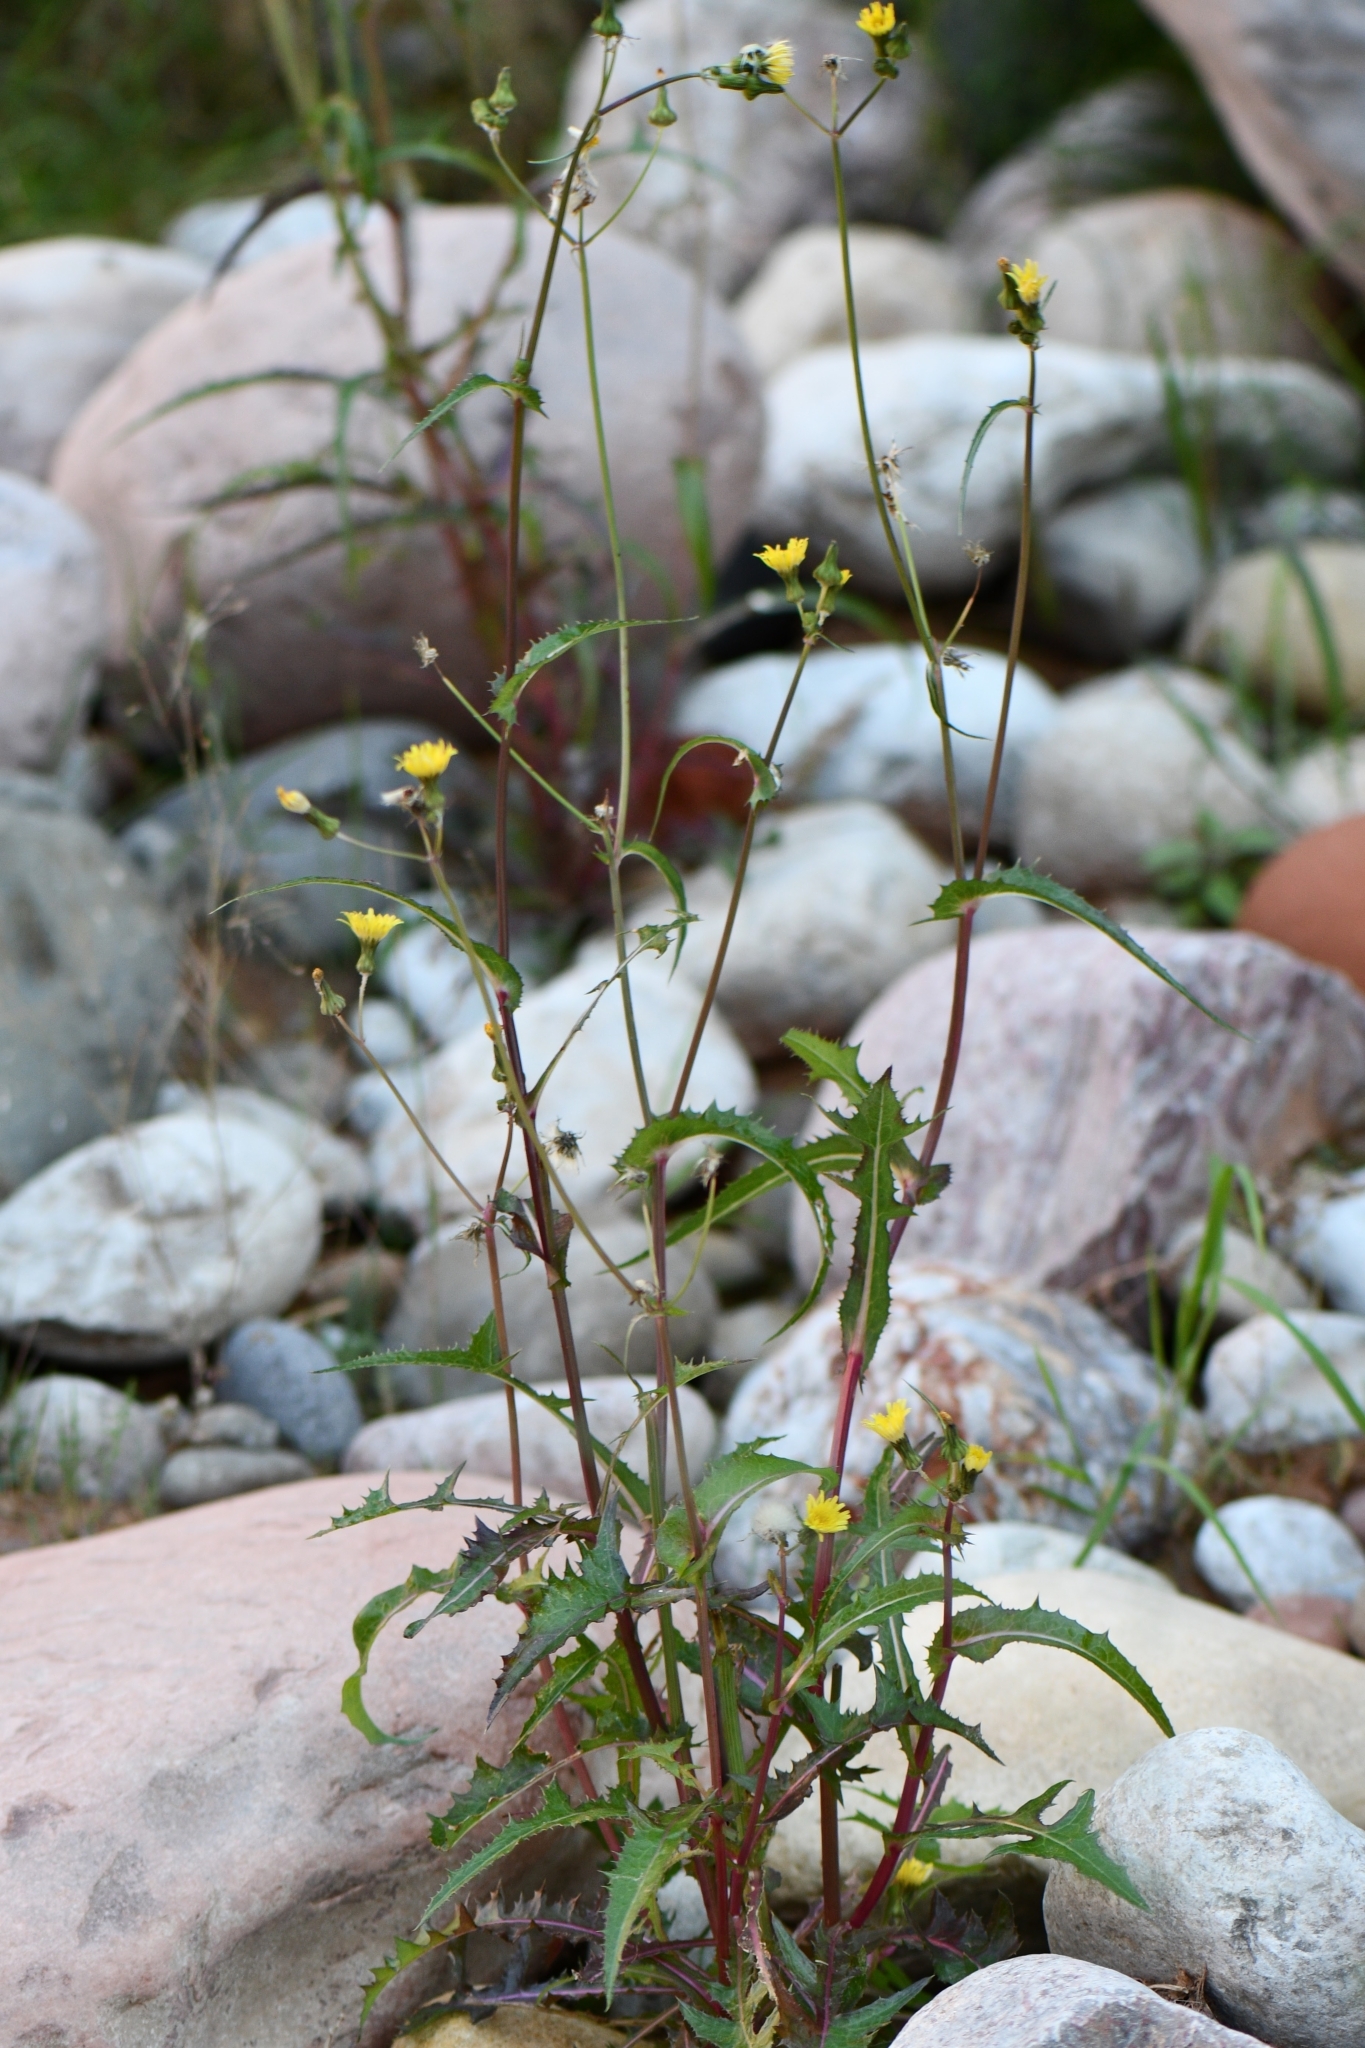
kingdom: Plantae
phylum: Tracheophyta
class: Magnoliopsida
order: Asterales
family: Asteraceae
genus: Sonchus
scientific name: Sonchus oleraceus
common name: Common sowthistle
